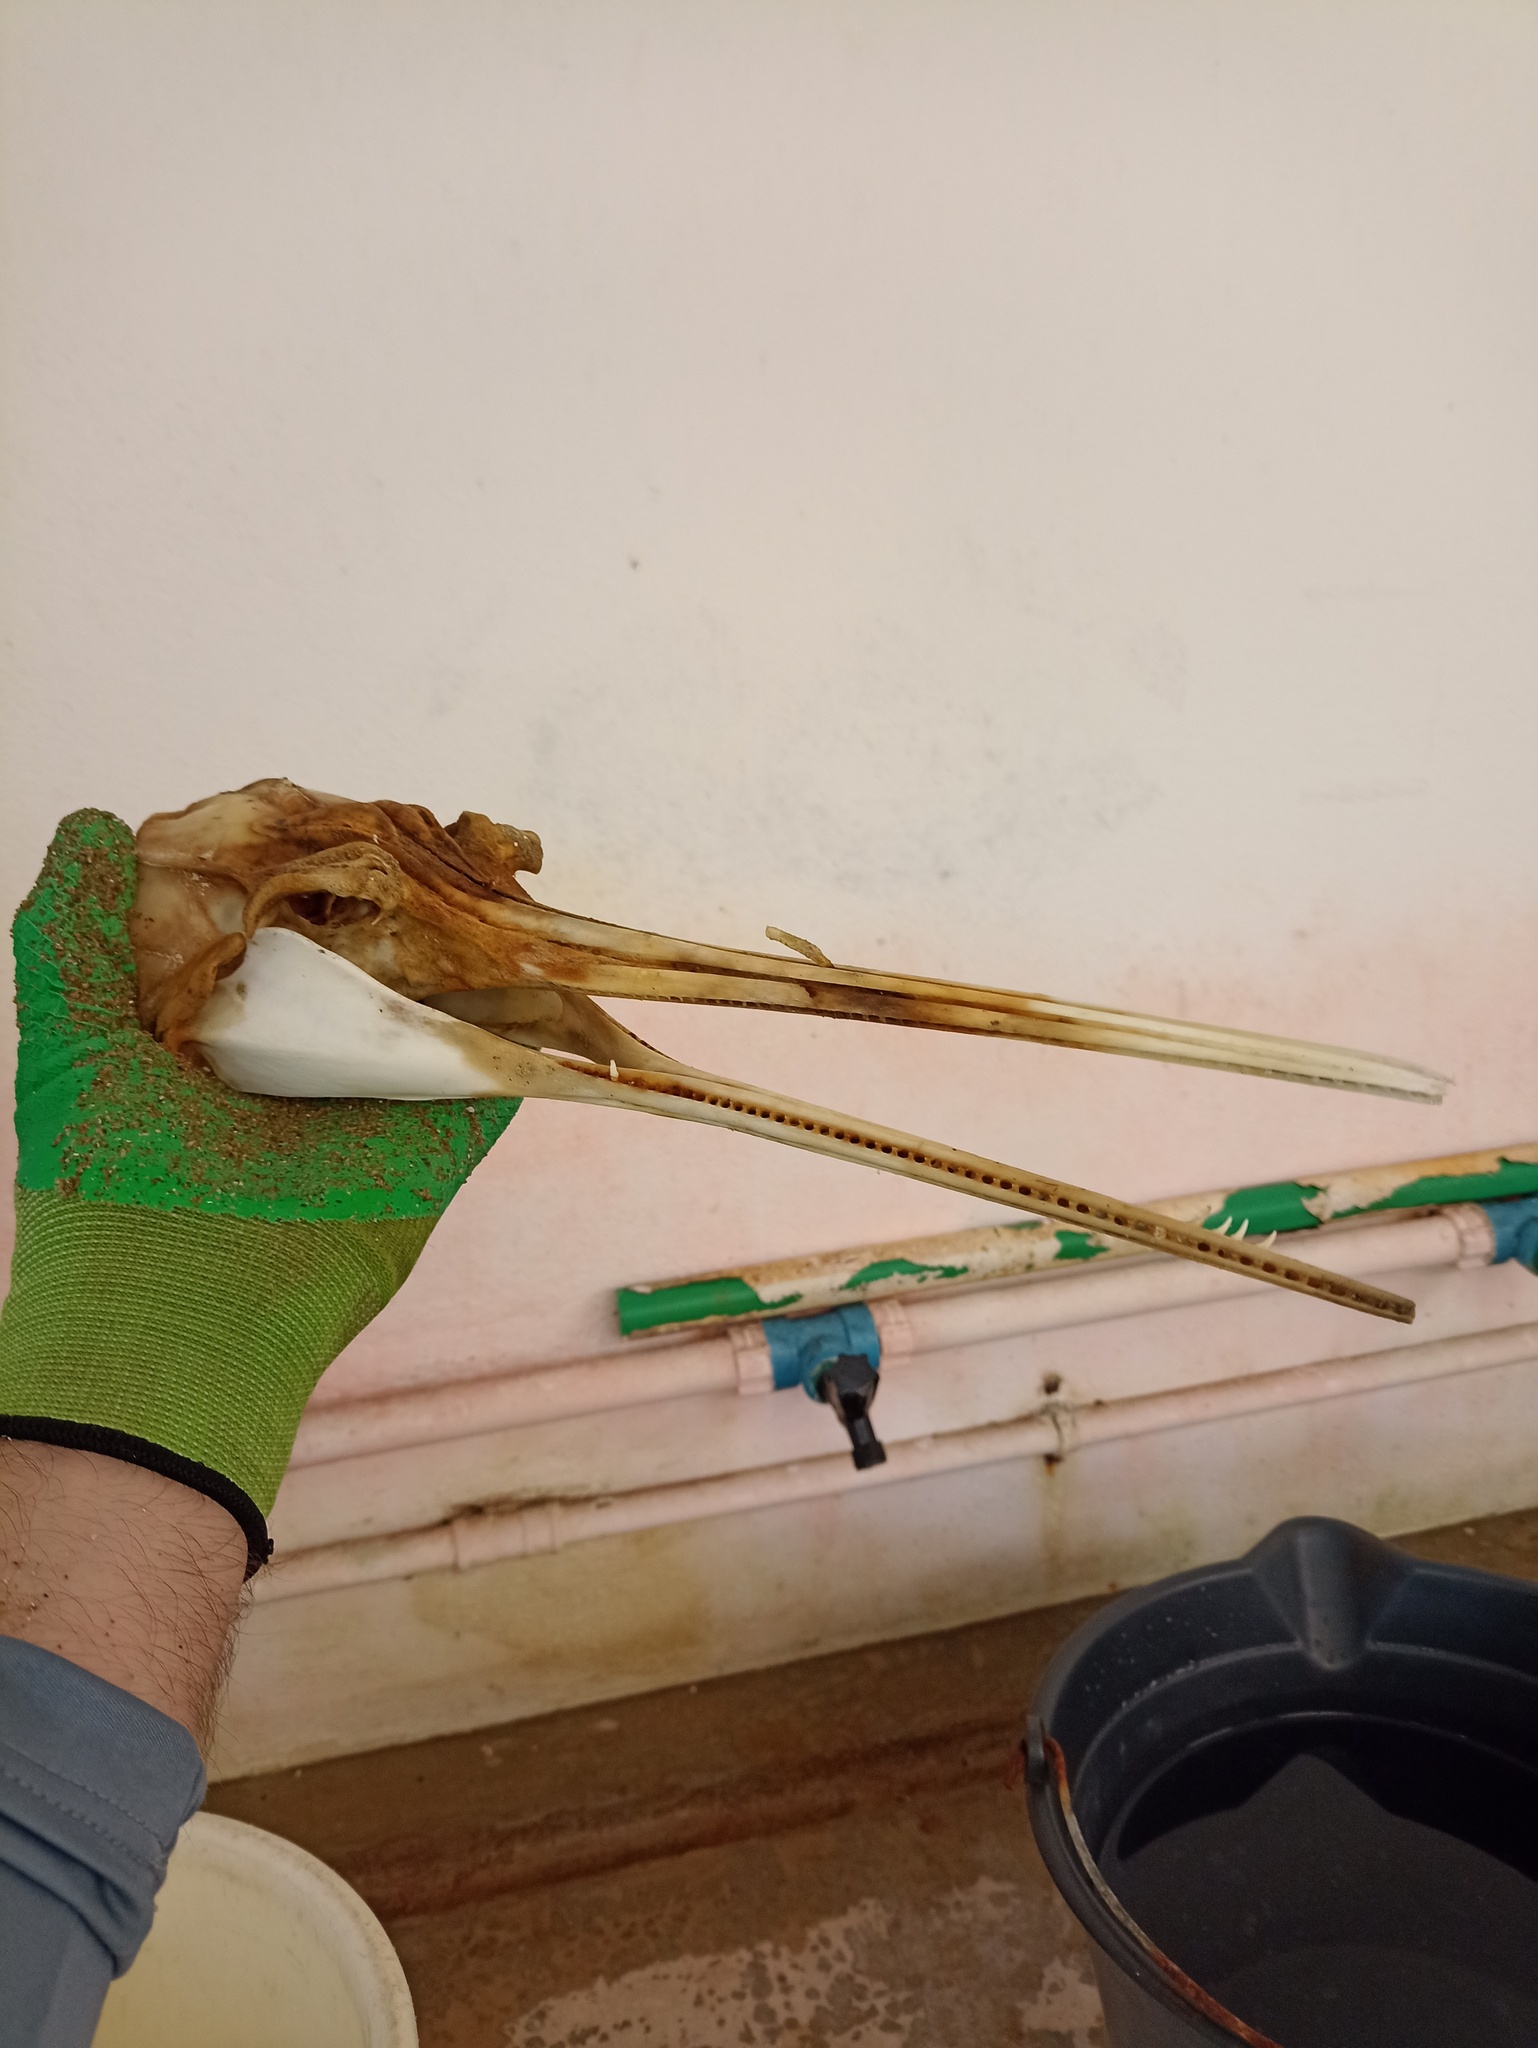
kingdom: Animalia
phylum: Chordata
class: Mammalia
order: Cetacea
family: Pontoporiidae
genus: Pontoporia
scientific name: Pontoporia blainvillei
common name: Franciscana
